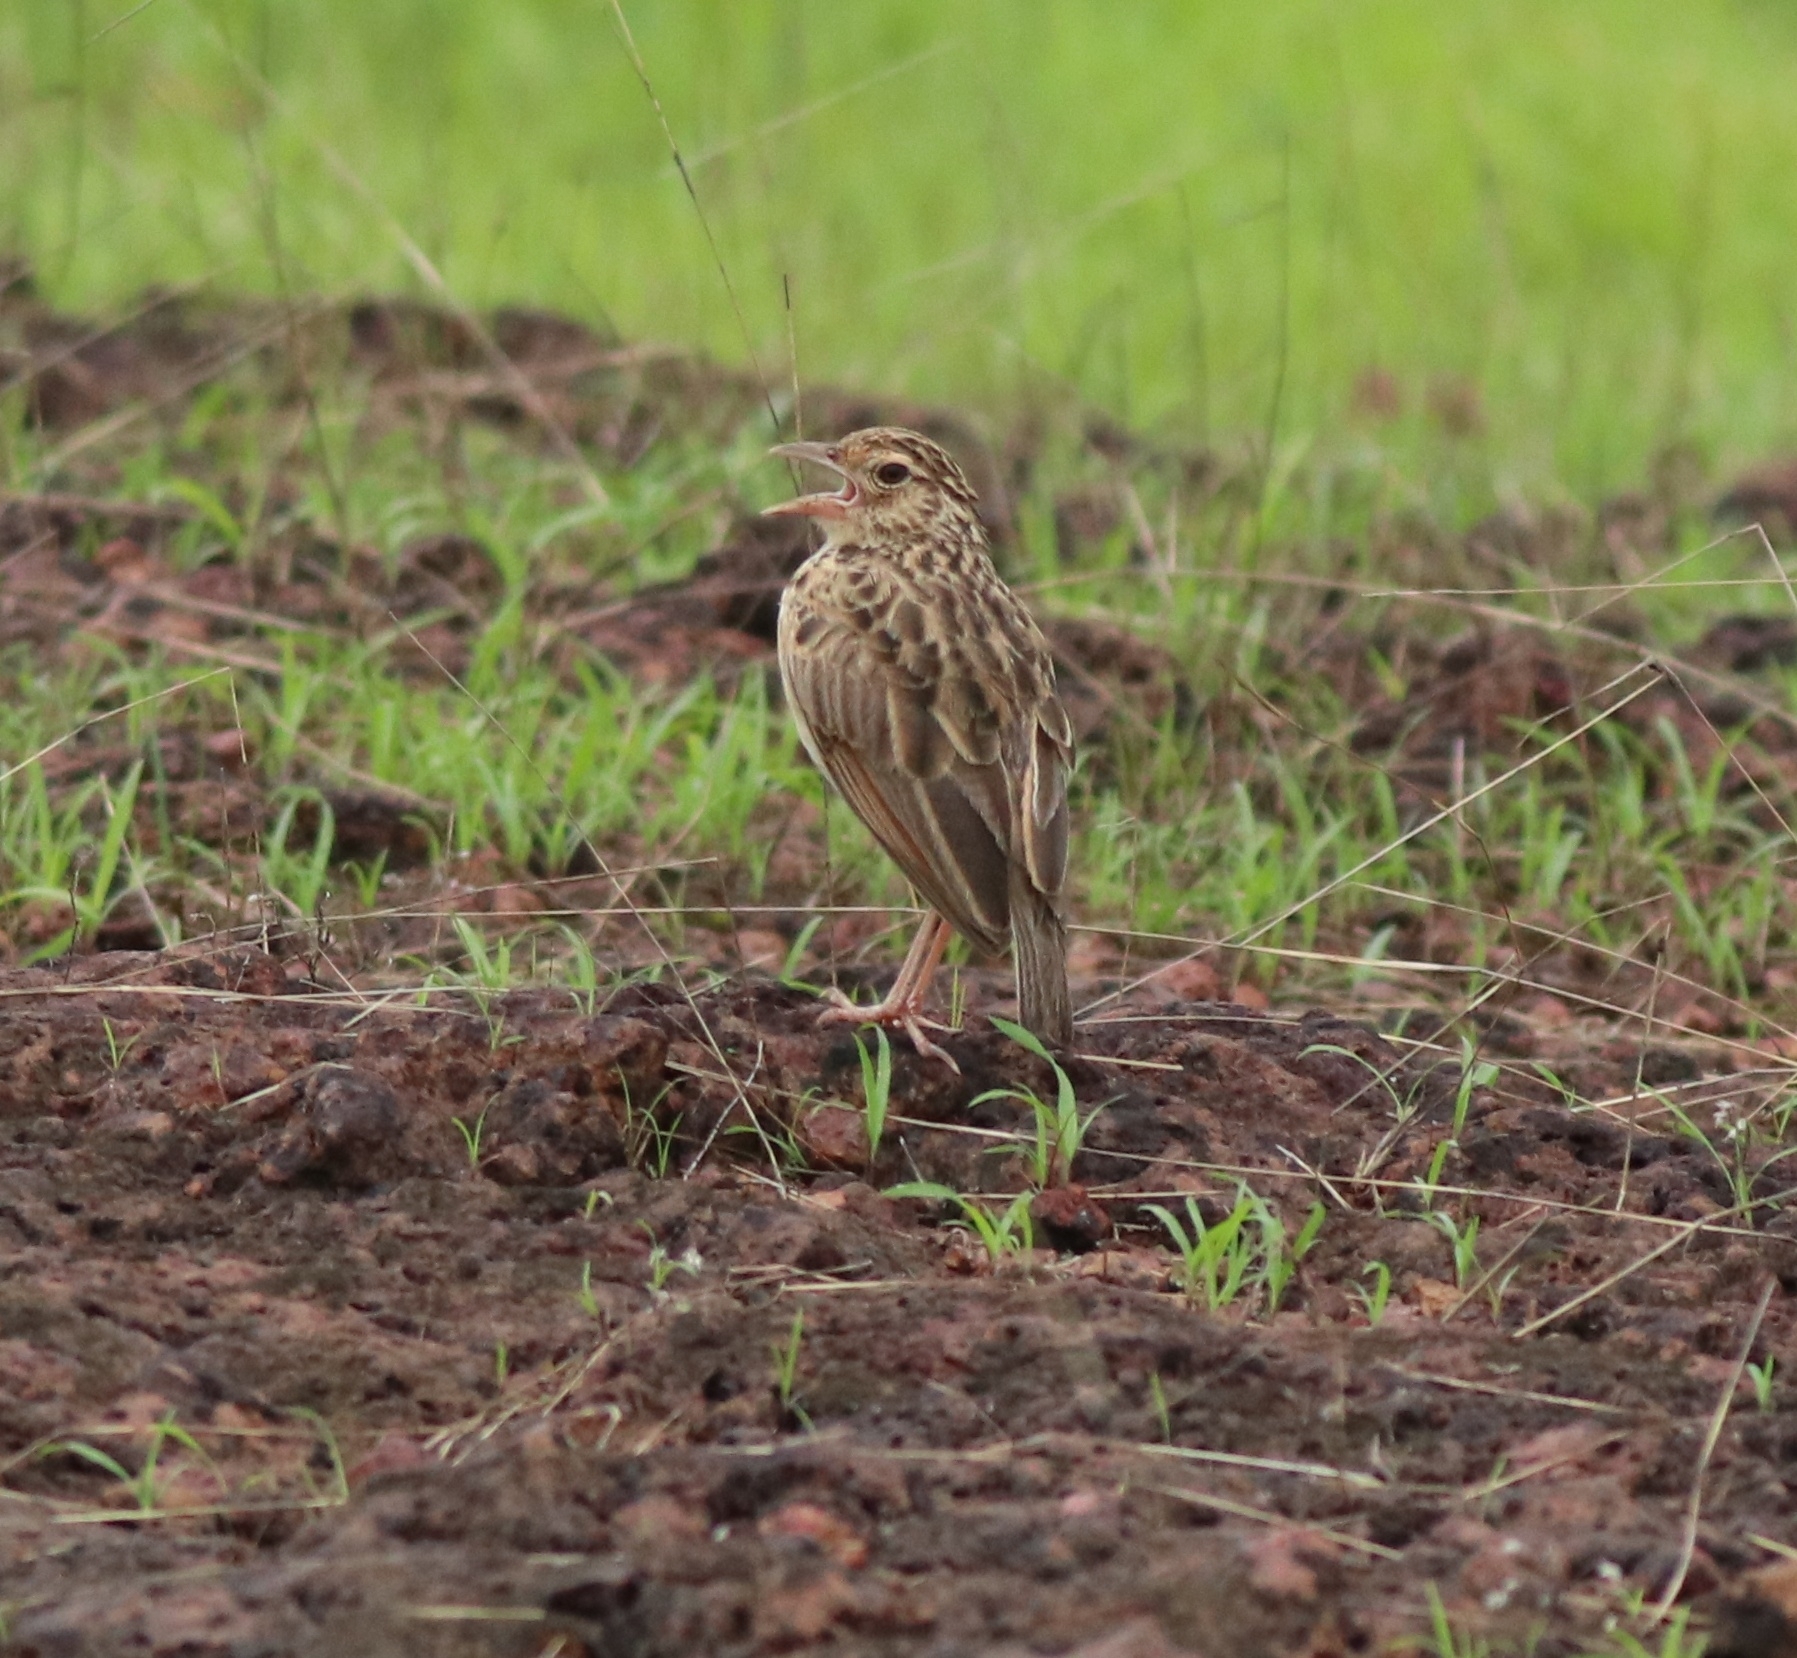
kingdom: Animalia
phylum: Chordata
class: Aves
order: Passeriformes
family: Alaudidae
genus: Mirafra
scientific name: Mirafra affinis
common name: Jerdon's bushlark
